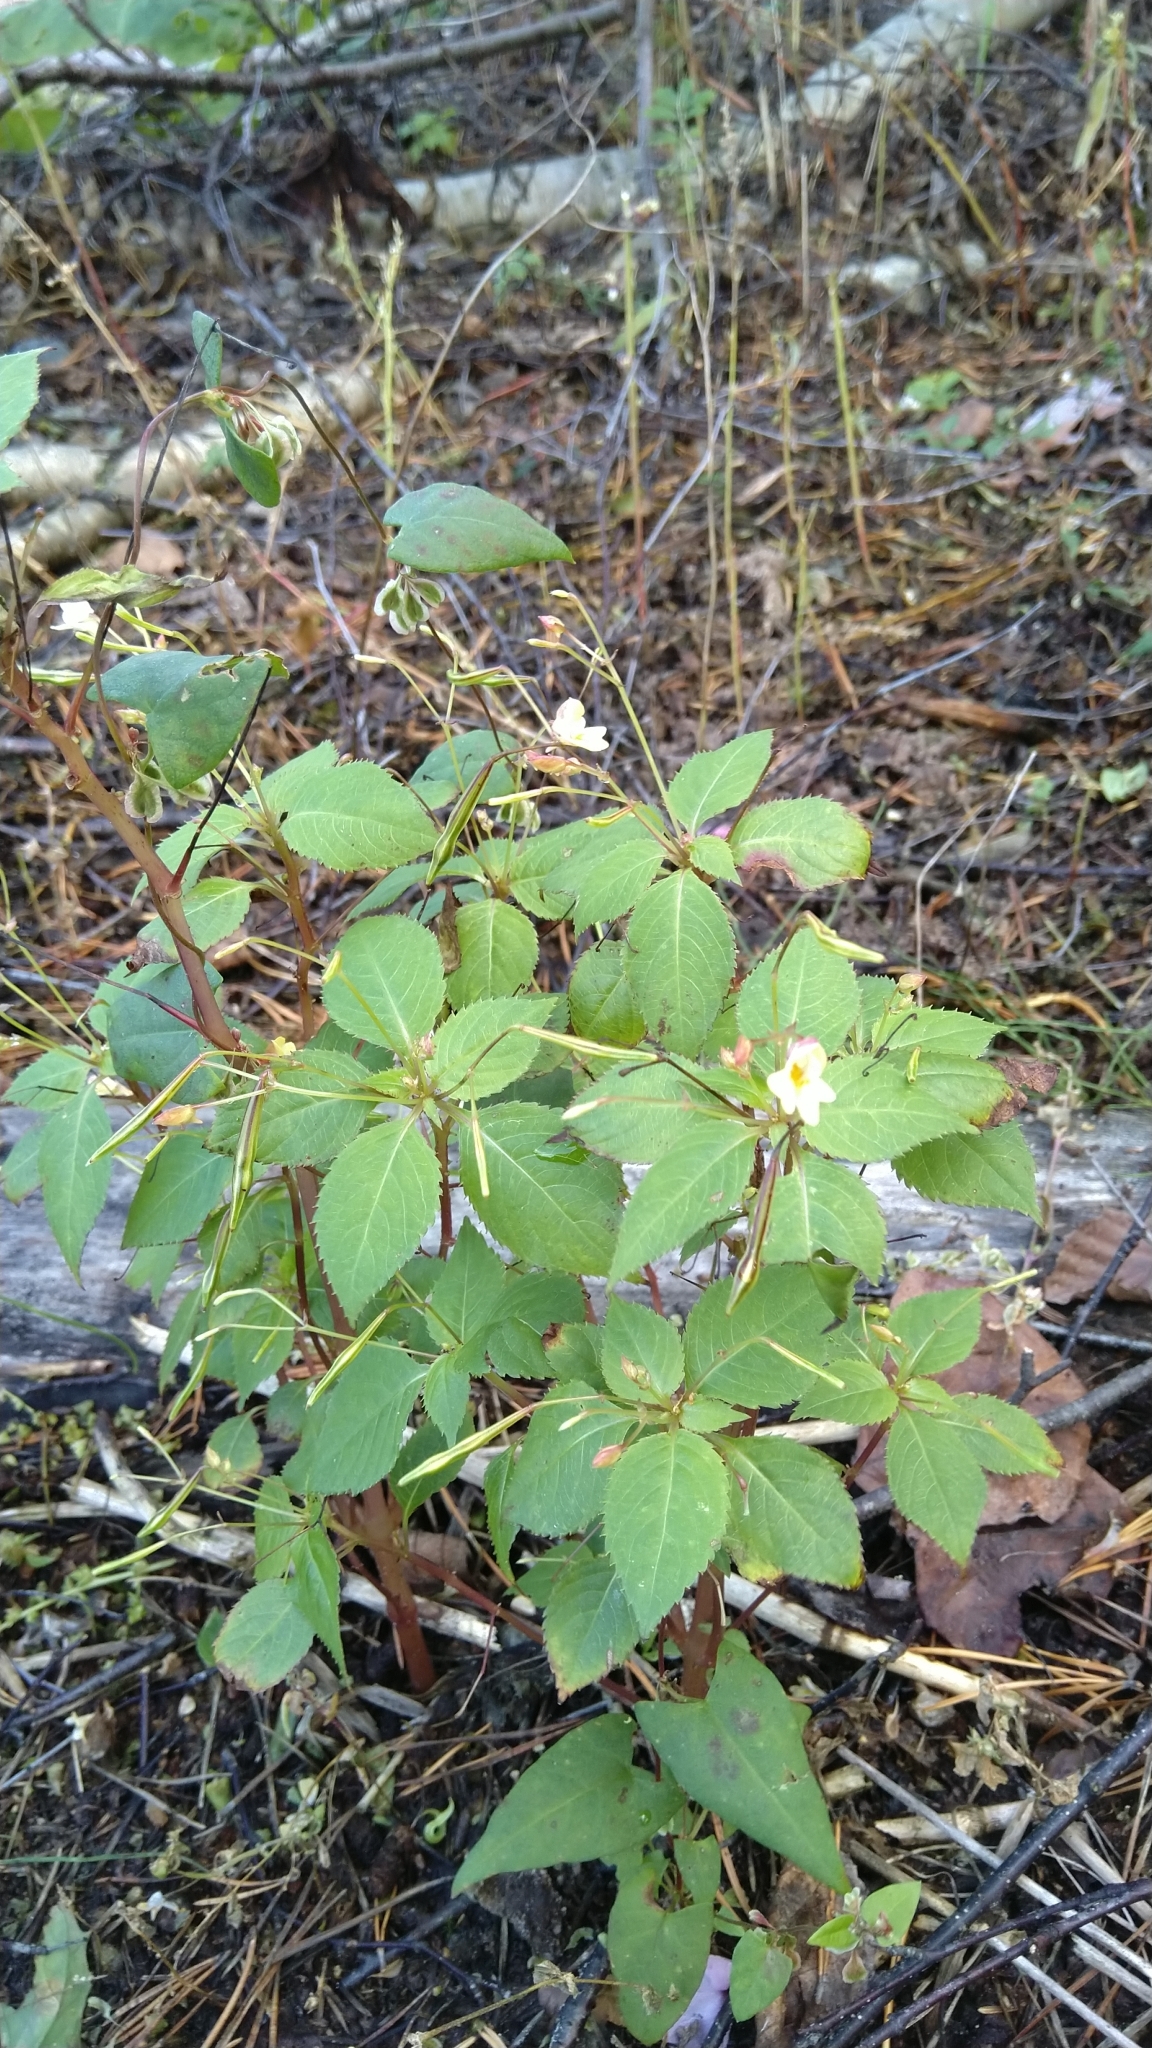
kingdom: Plantae
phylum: Tracheophyta
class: Magnoliopsida
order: Ericales
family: Balsaminaceae
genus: Impatiens
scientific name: Impatiens parviflora
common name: Small balsam
